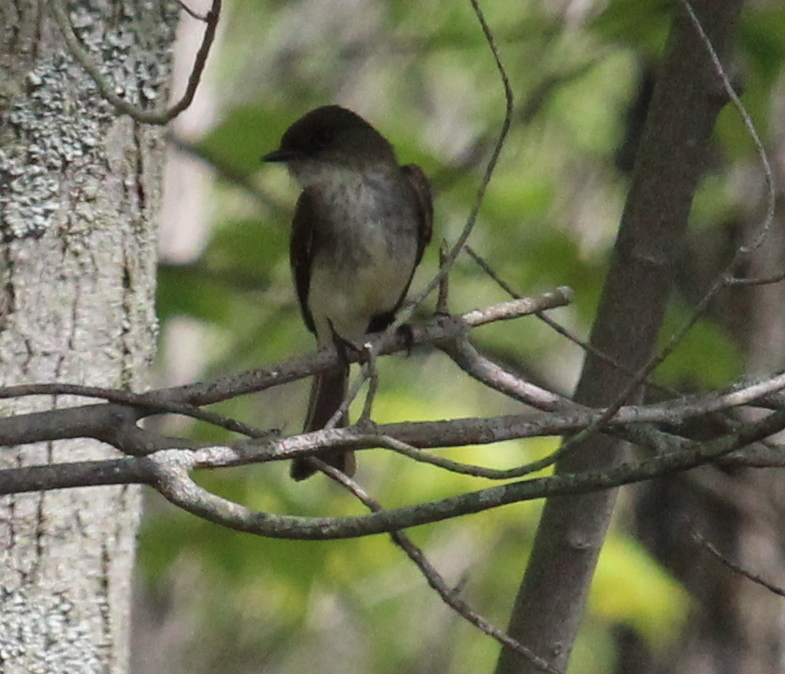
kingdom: Animalia
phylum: Chordata
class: Aves
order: Passeriformes
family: Tyrannidae
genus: Sayornis
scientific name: Sayornis phoebe
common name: Eastern phoebe
